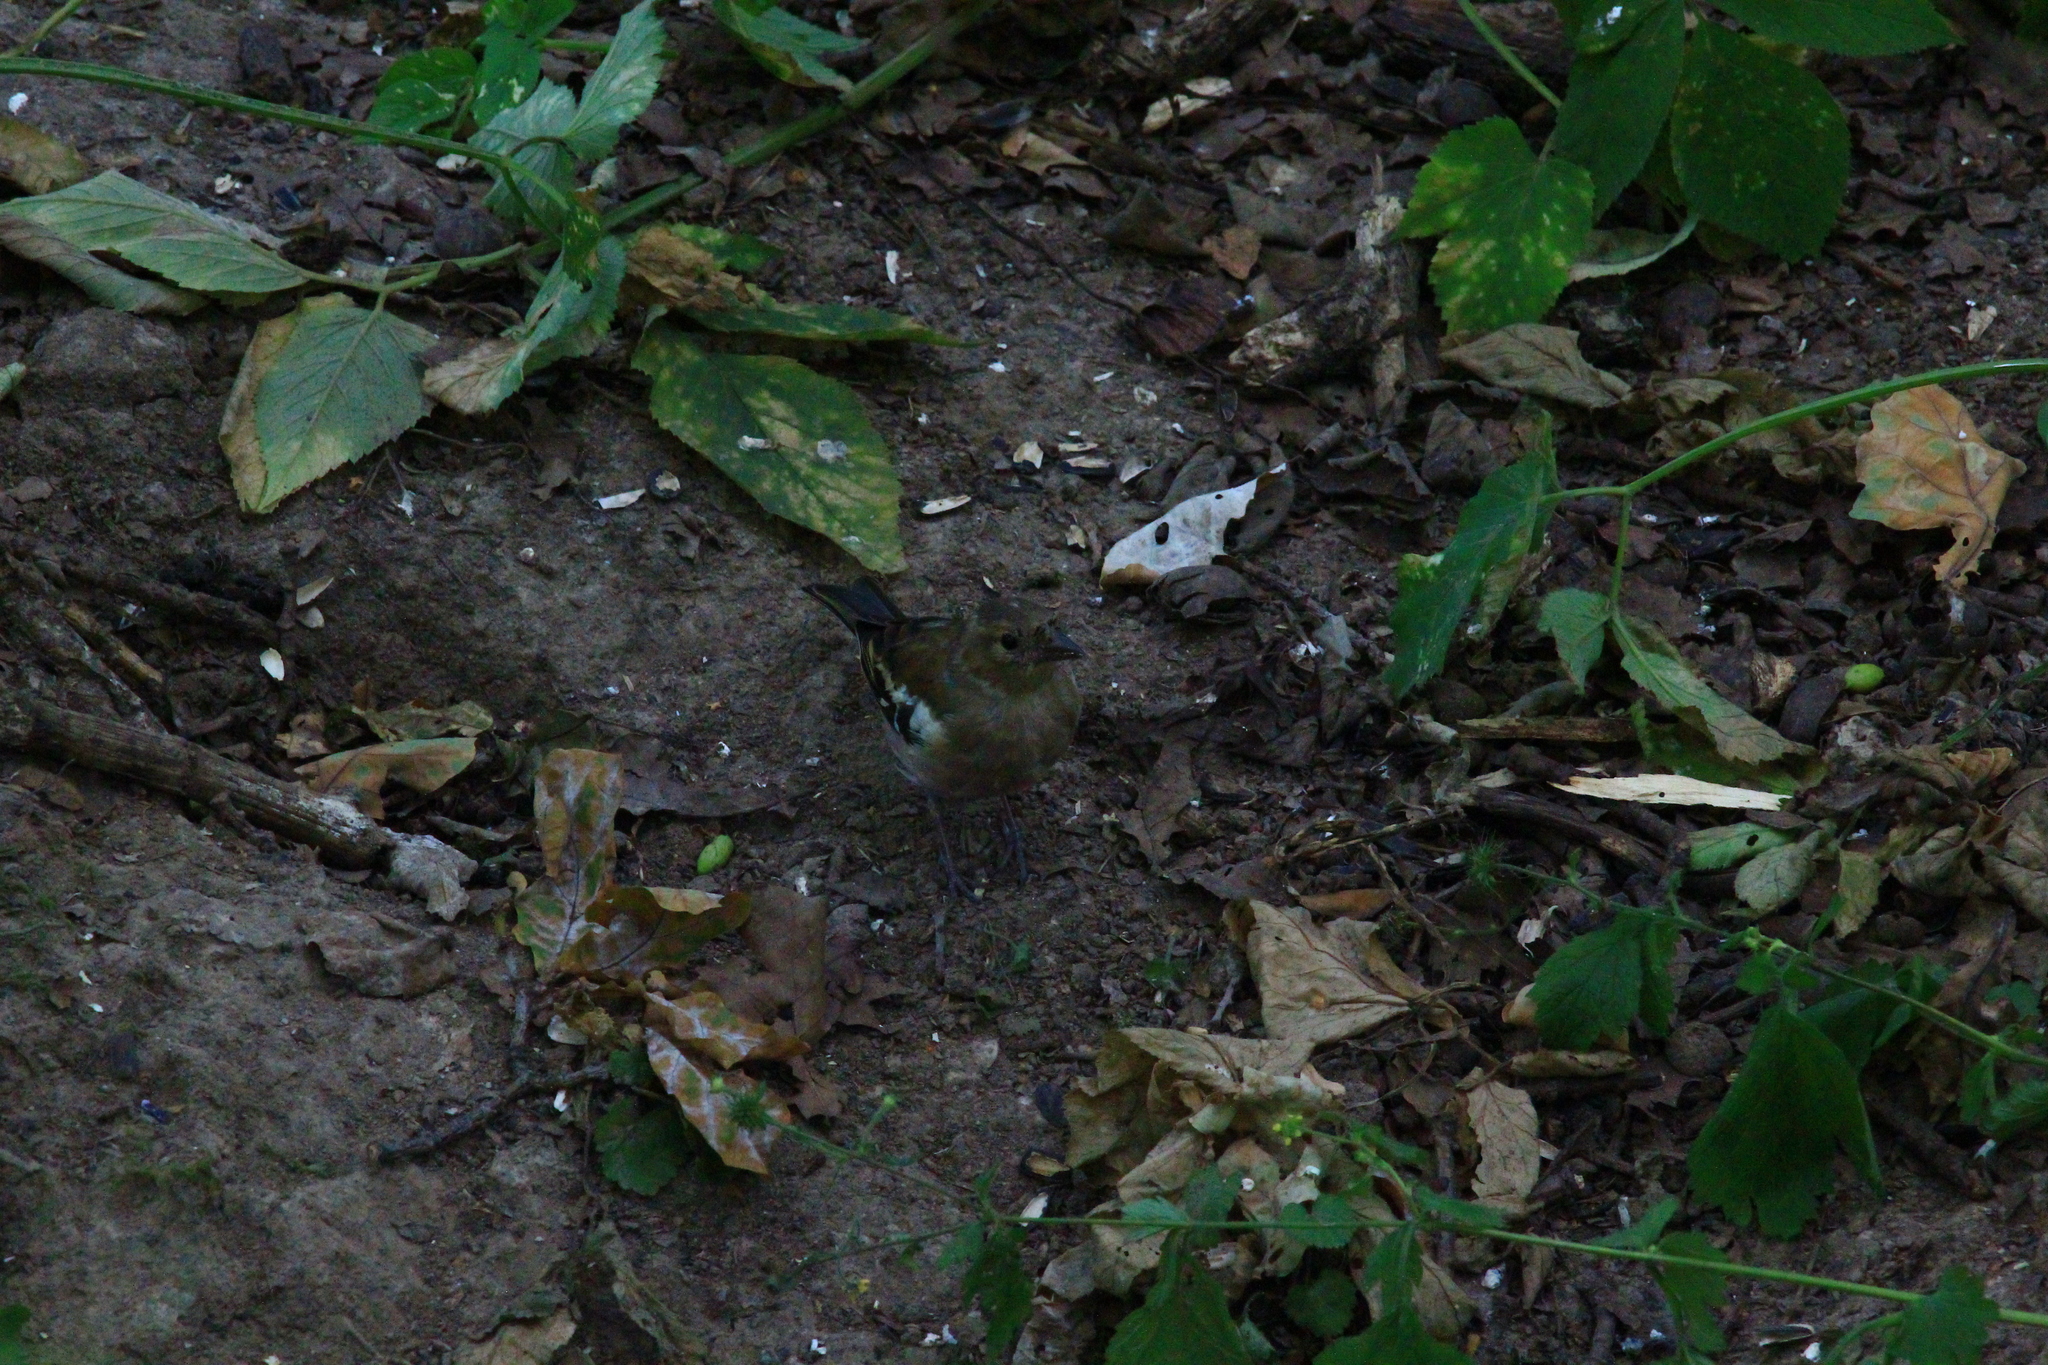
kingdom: Animalia
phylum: Chordata
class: Aves
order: Passeriformes
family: Fringillidae
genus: Fringilla
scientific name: Fringilla coelebs
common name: Common chaffinch
